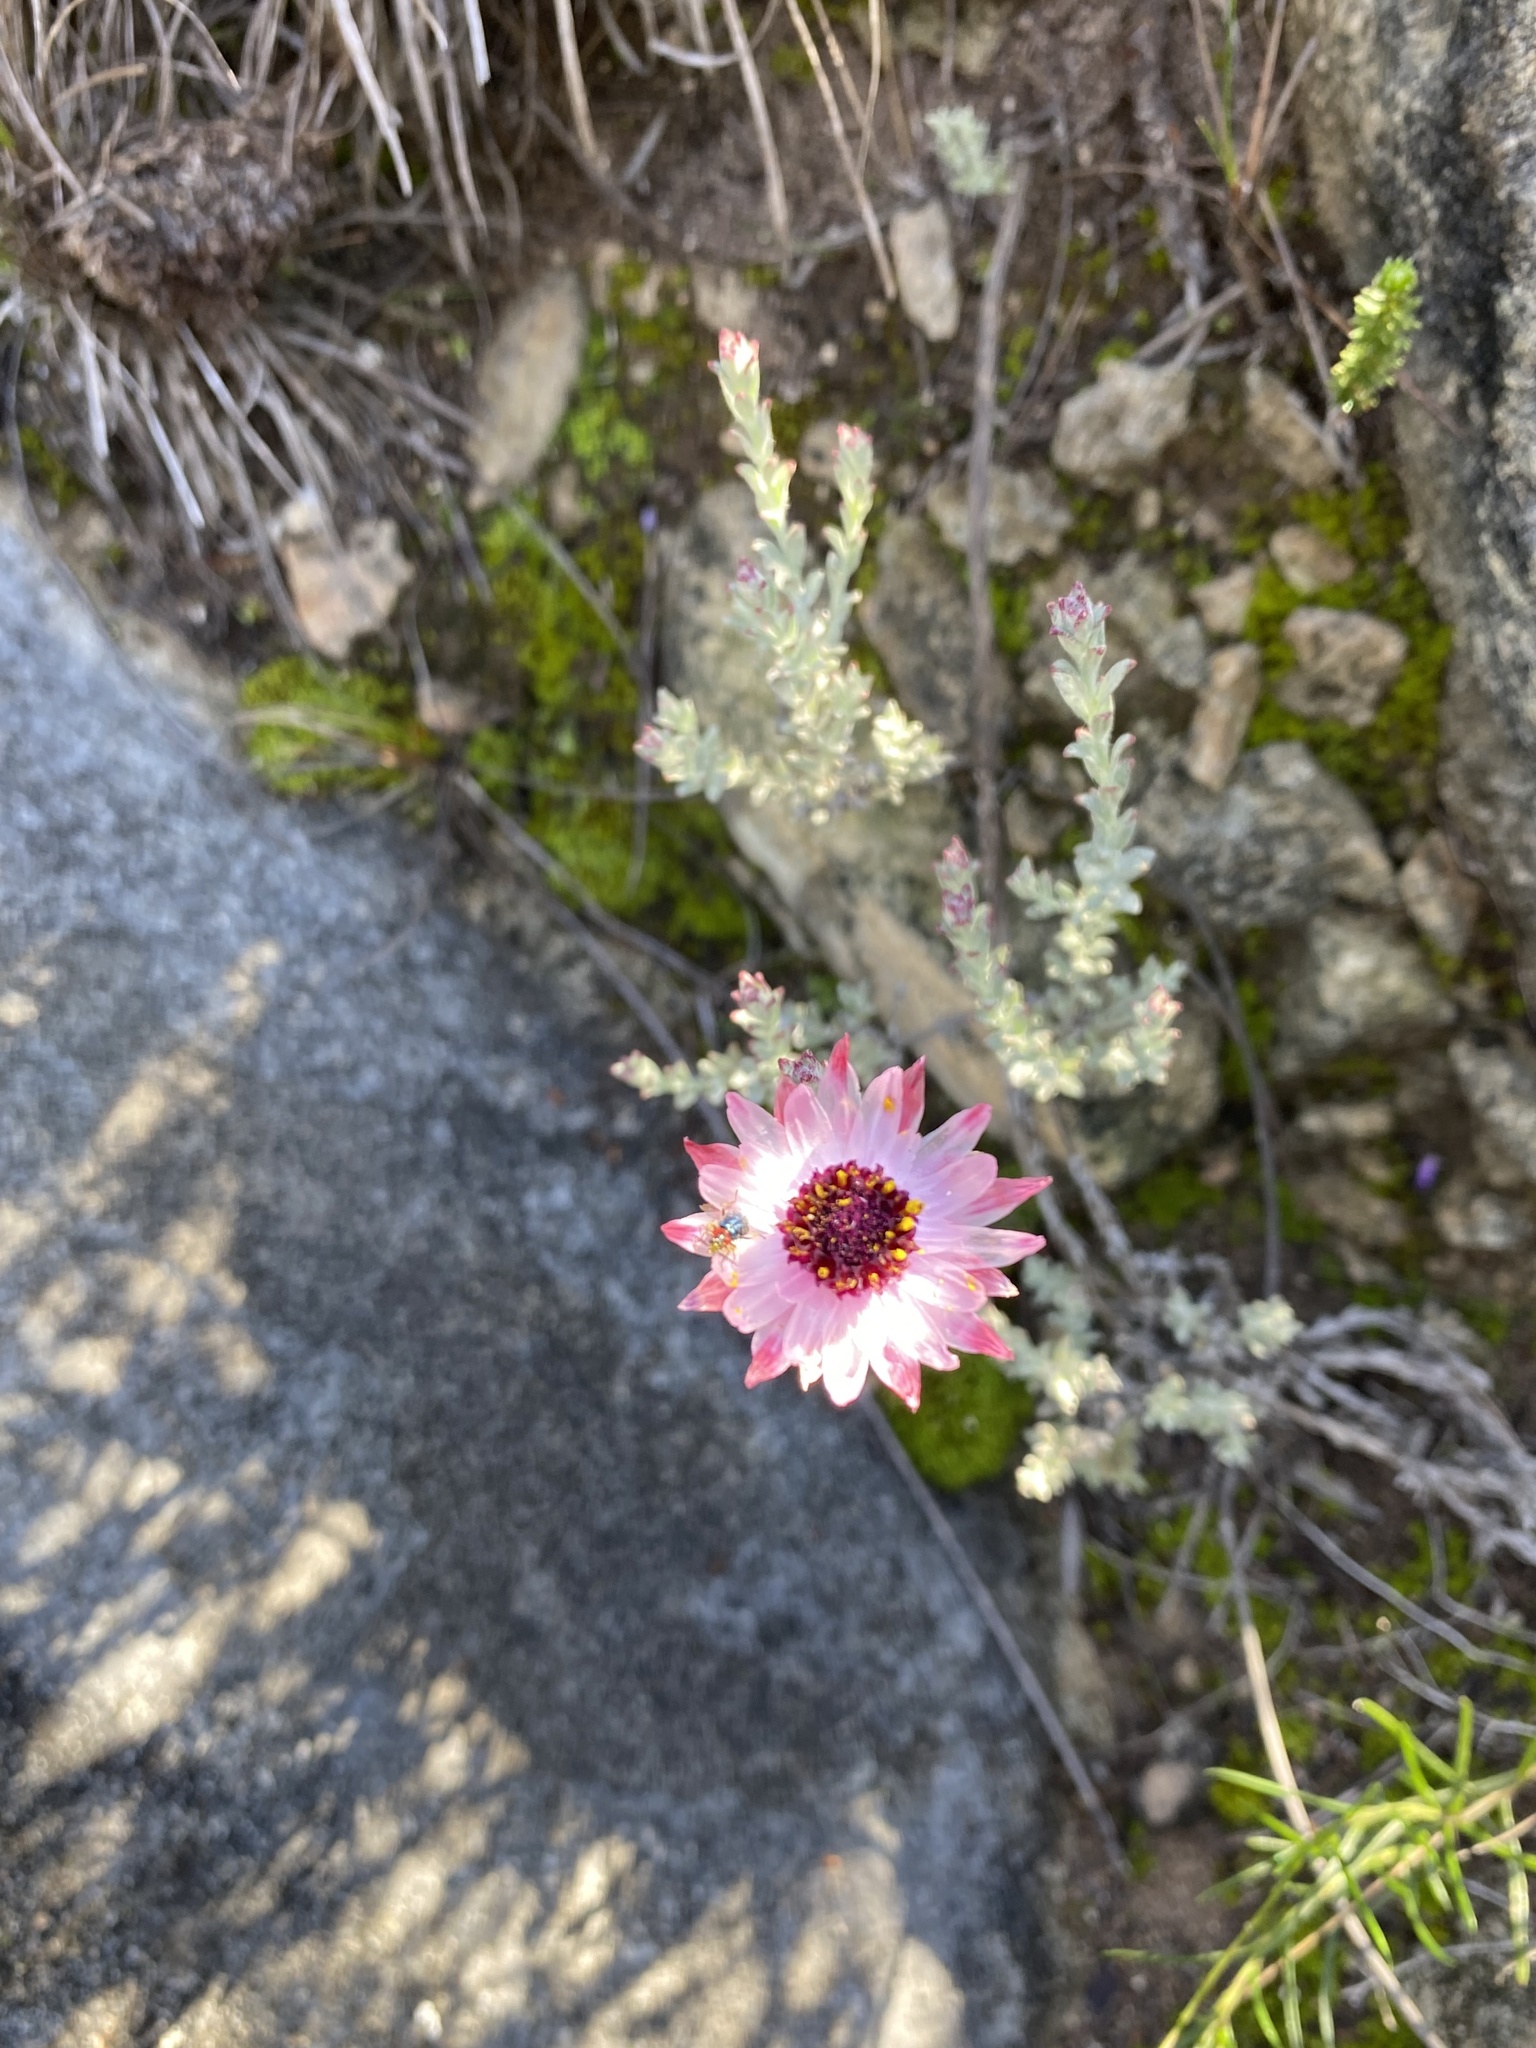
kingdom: Plantae
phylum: Tracheophyta
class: Magnoliopsida
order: Asterales
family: Asteraceae
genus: Syncarpha
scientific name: Syncarpha canescens
